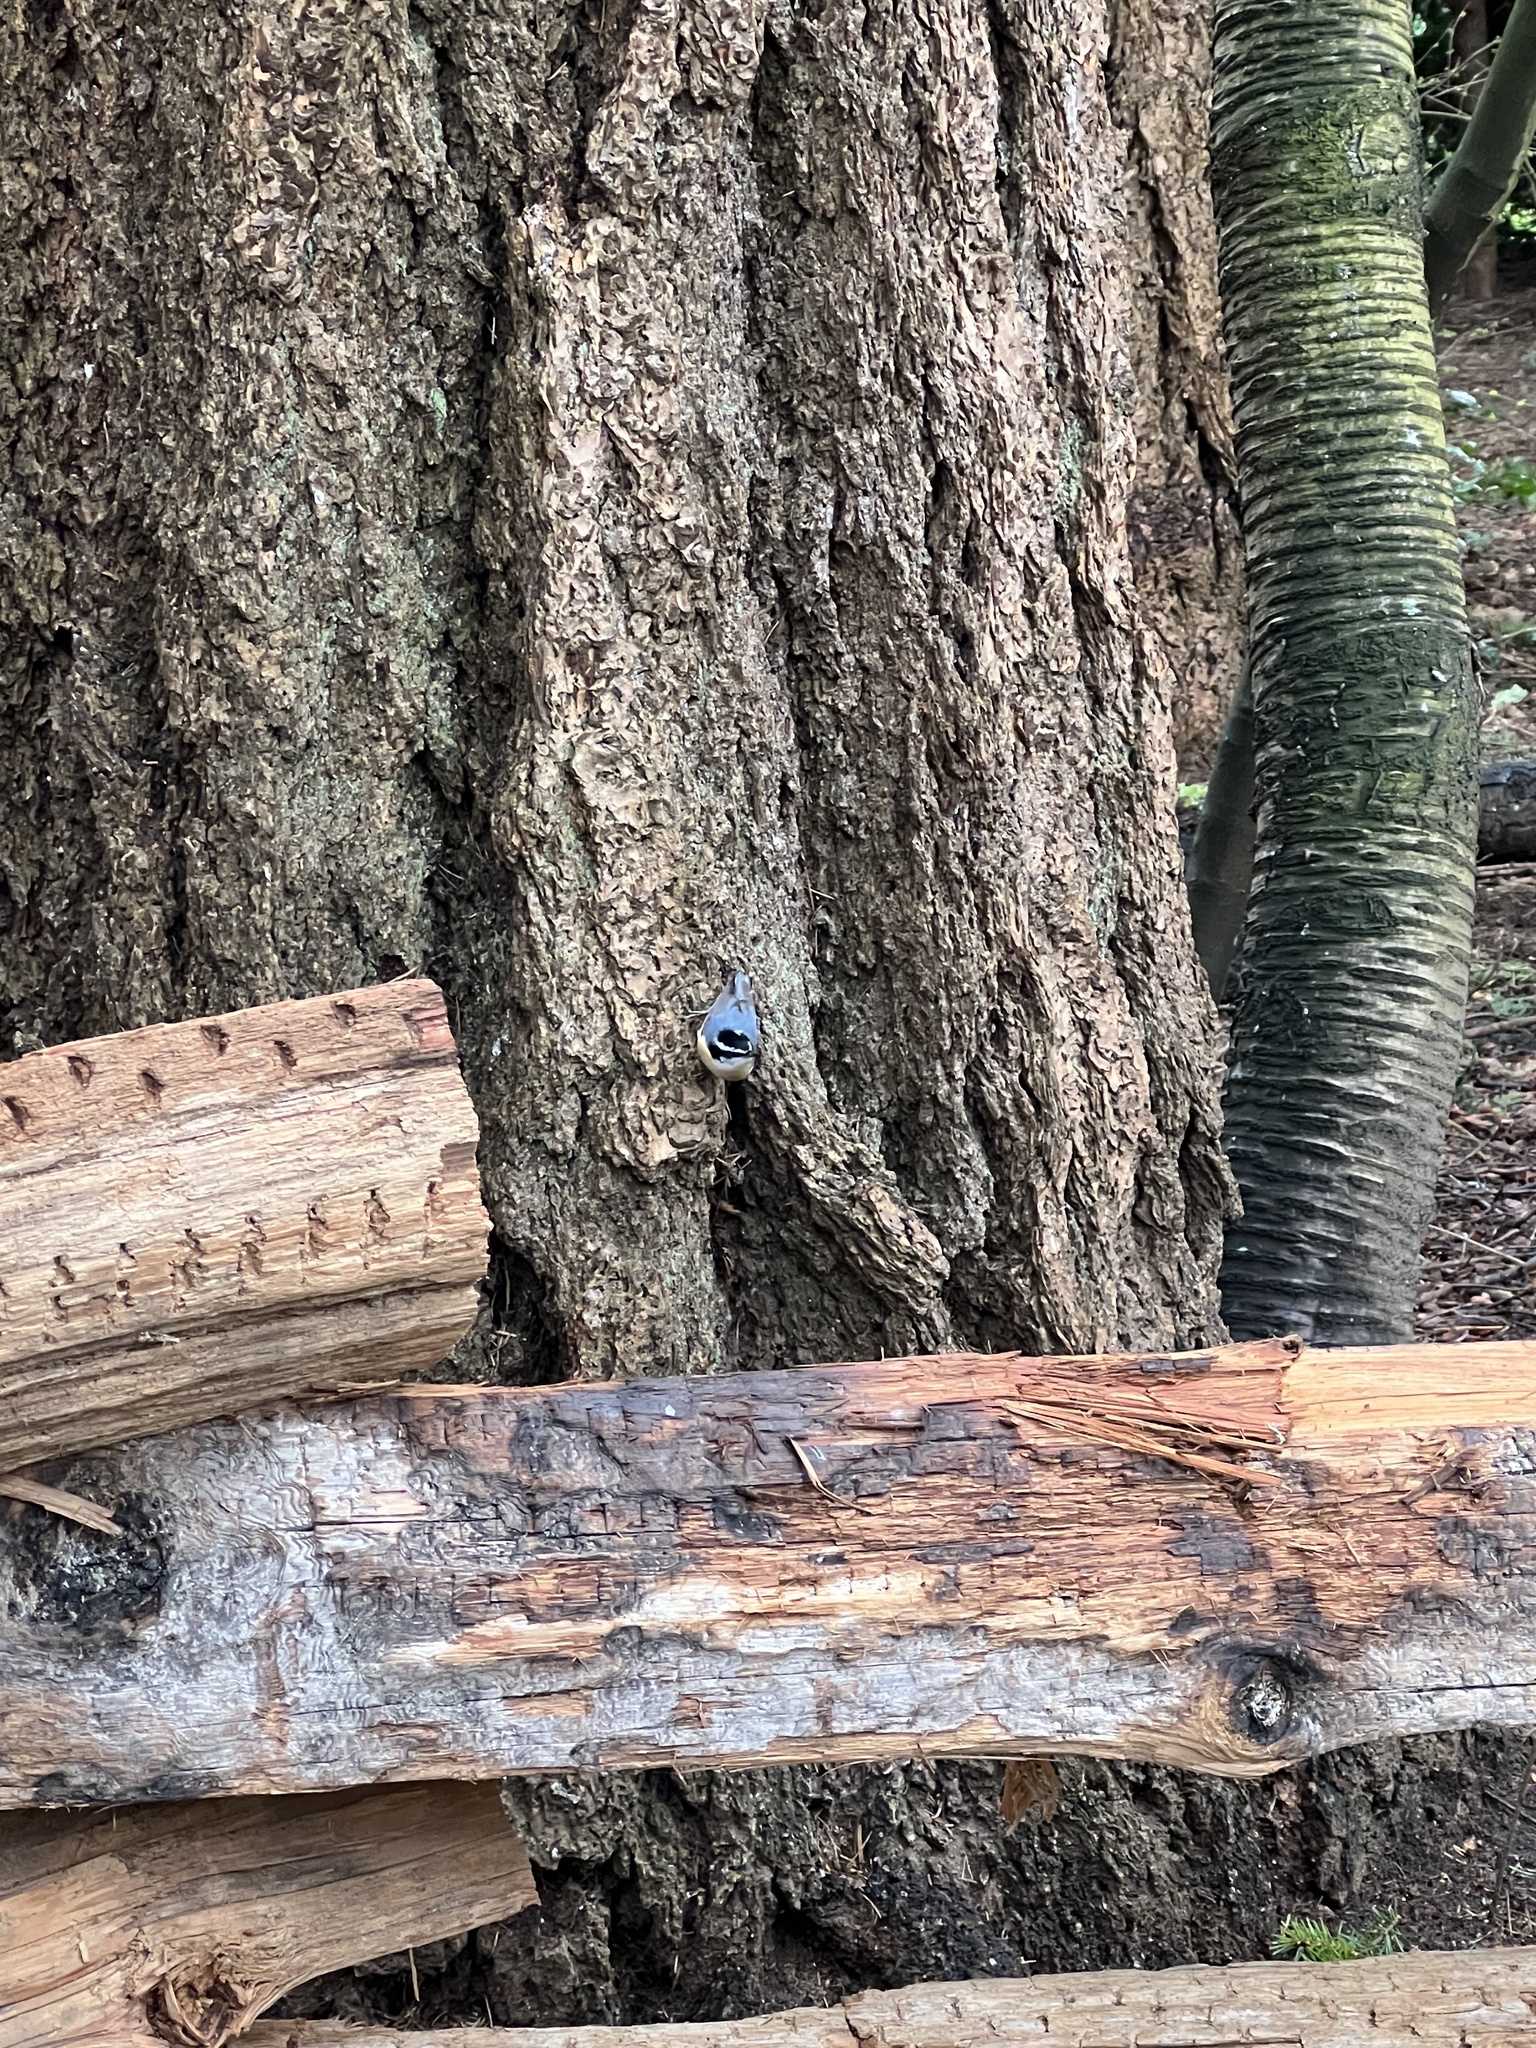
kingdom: Animalia
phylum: Chordata
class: Aves
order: Passeriformes
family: Sittidae
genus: Sitta
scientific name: Sitta canadensis
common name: Red-breasted nuthatch
